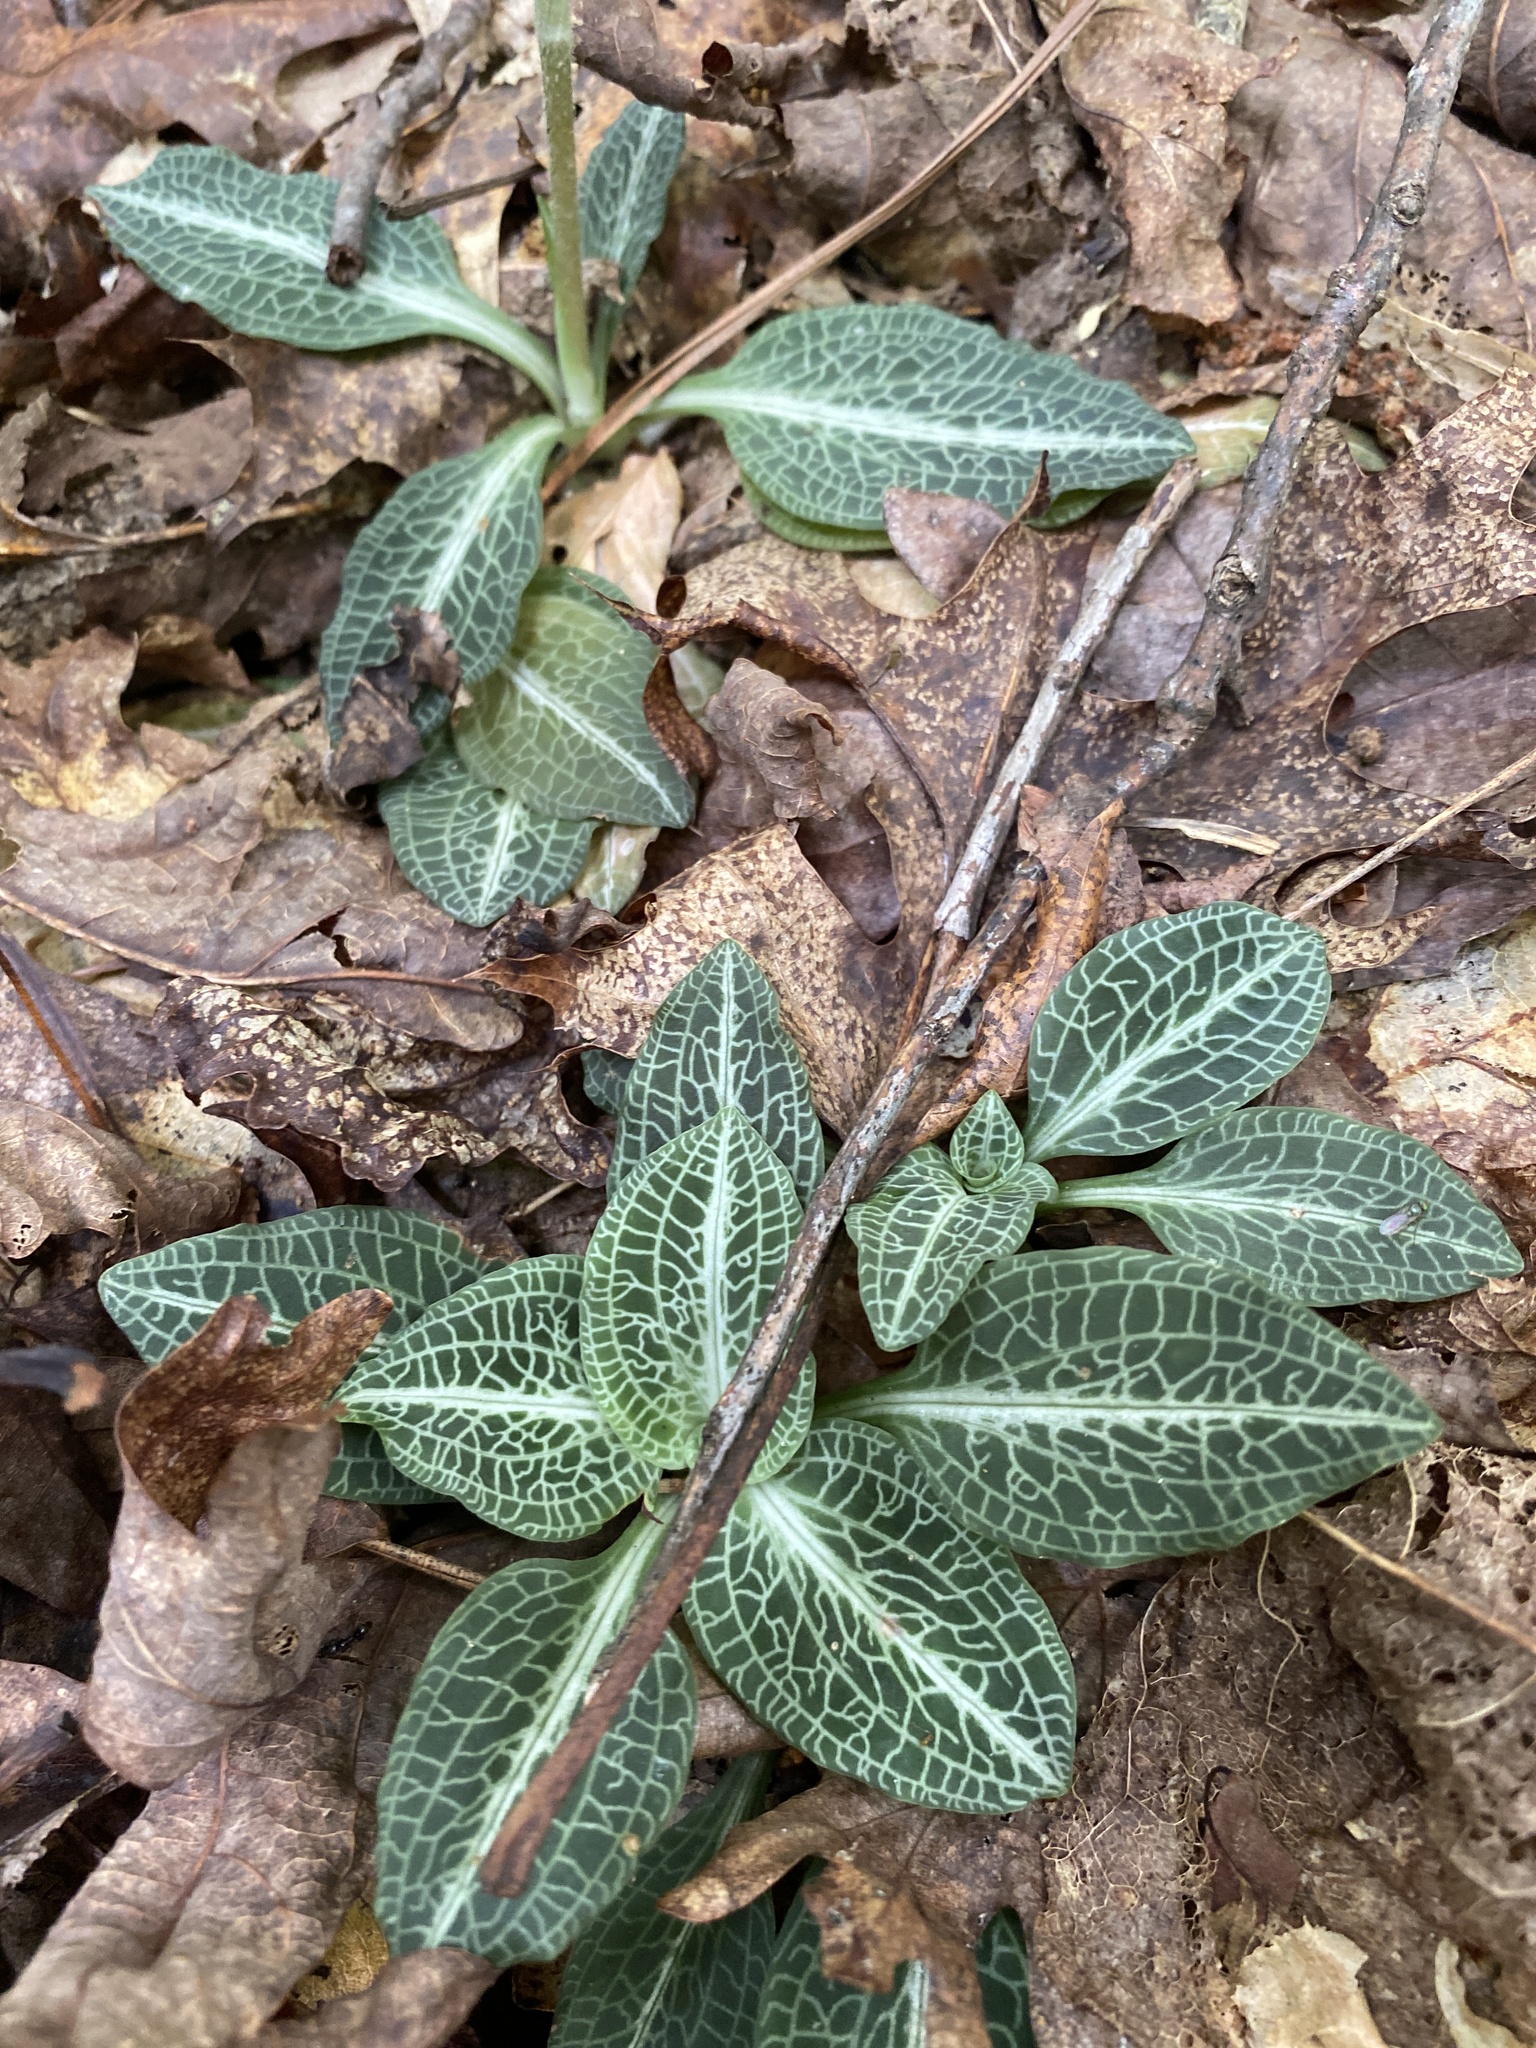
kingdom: Plantae
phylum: Tracheophyta
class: Liliopsida
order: Asparagales
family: Orchidaceae
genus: Goodyera
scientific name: Goodyera pubescens
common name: Downy rattlesnake-plantain
